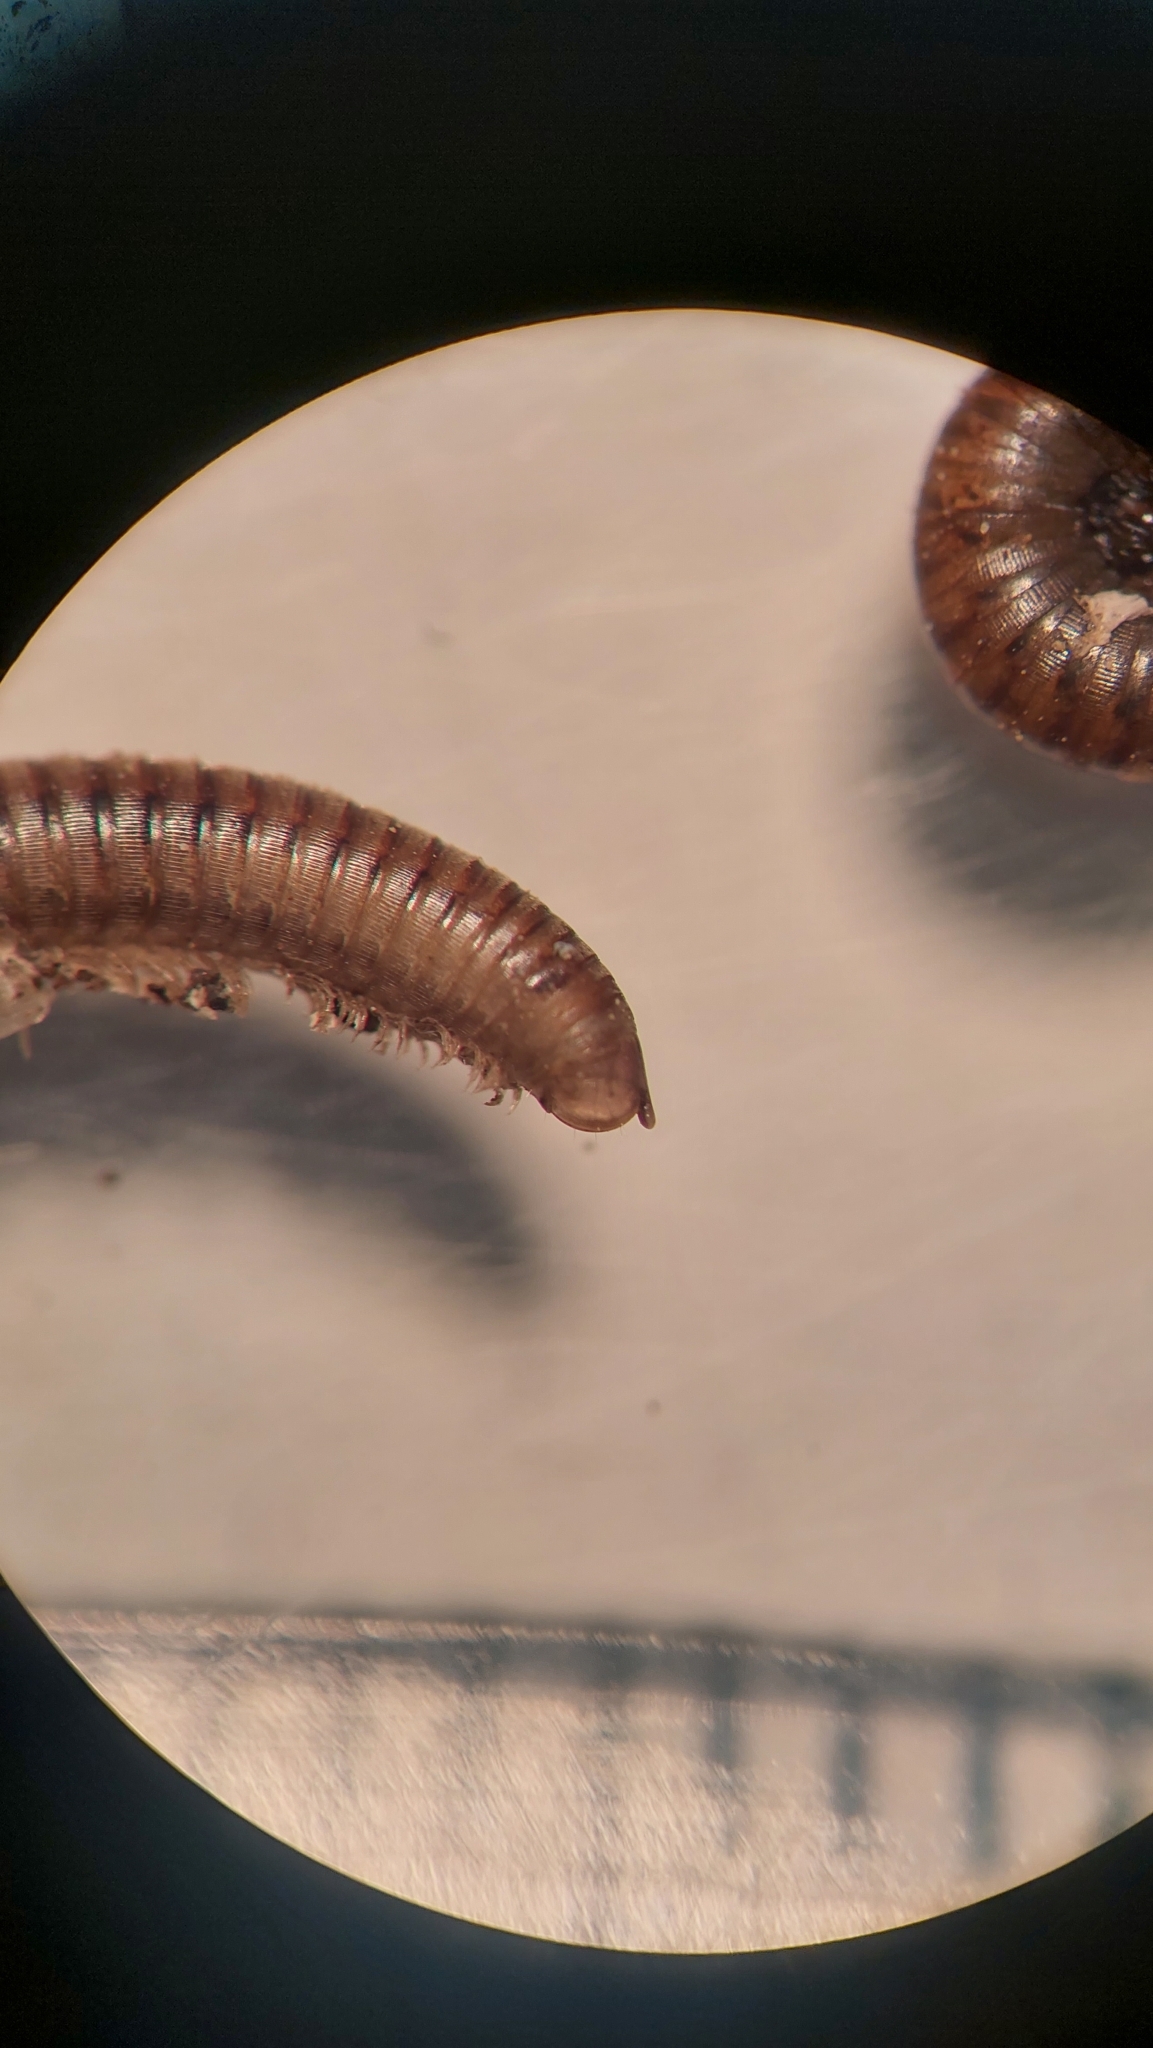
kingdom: Animalia
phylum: Arthropoda
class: Diplopoda
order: Julida
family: Julidae
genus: Cylindroiulus
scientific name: Cylindroiulus punctatus
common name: Blunt-tailed millipede
